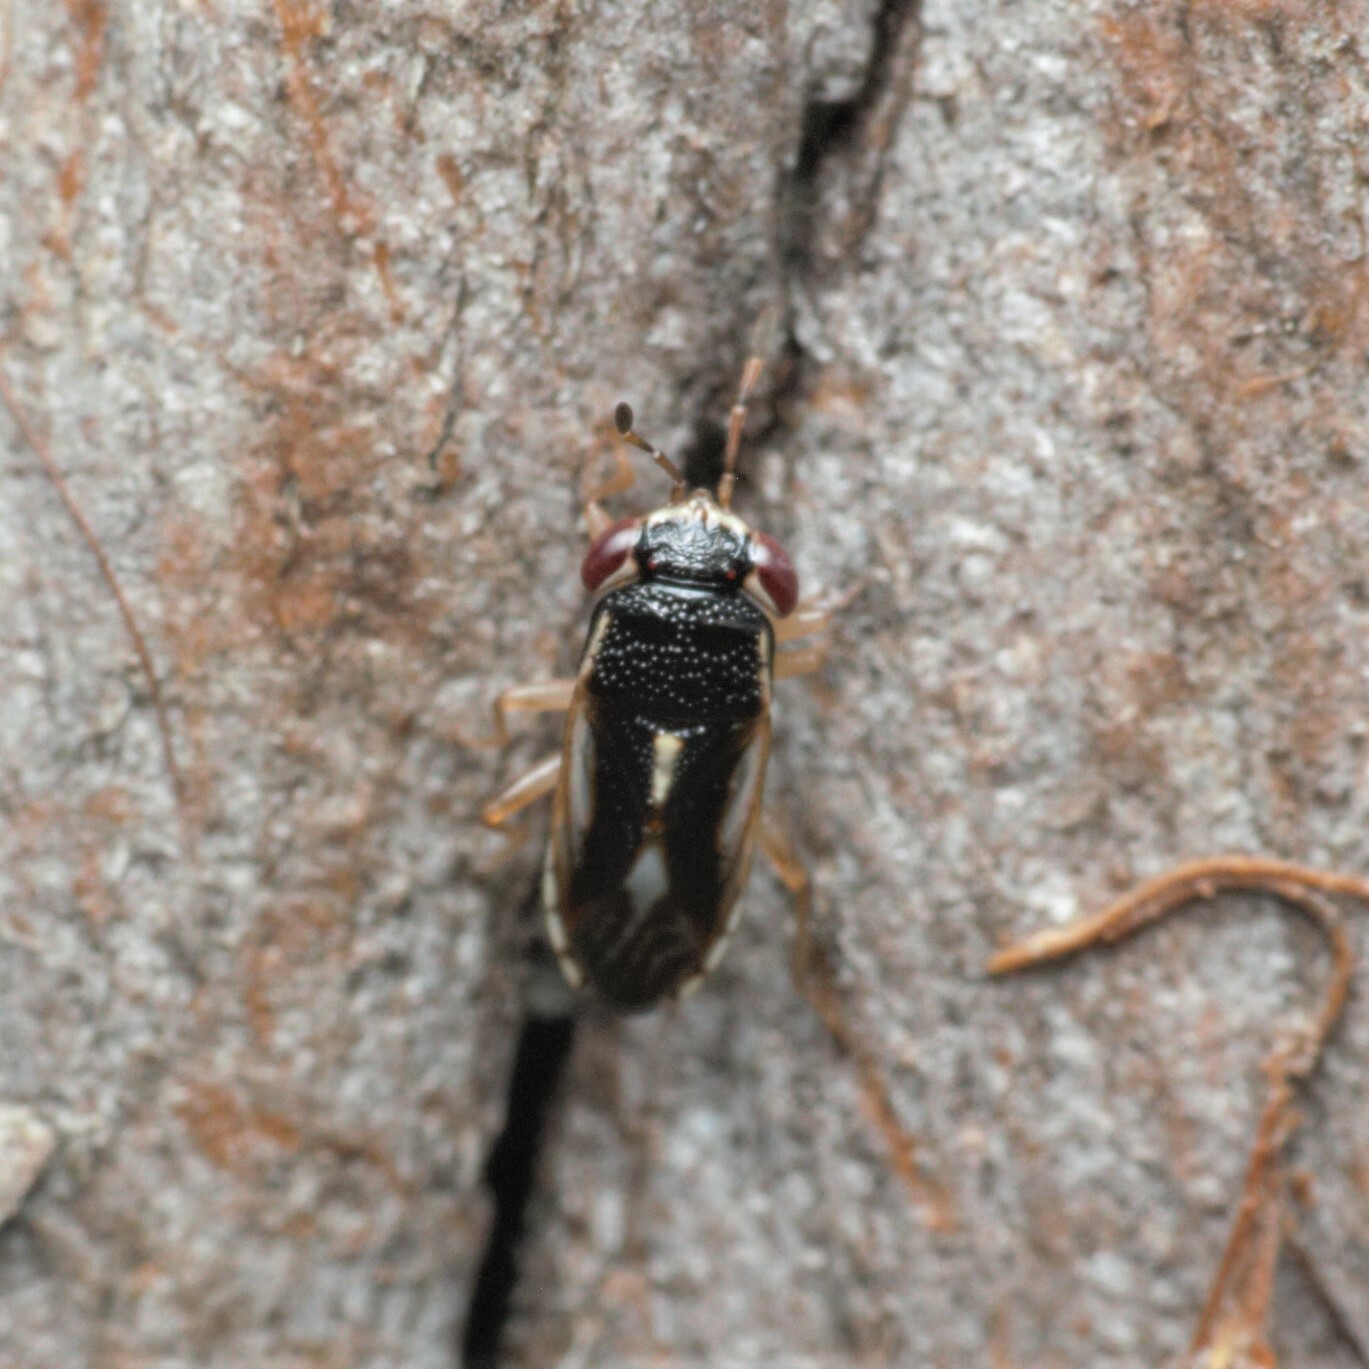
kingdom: Animalia
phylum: Arthropoda
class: Insecta
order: Hemiptera
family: Geocoridae
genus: Stylogeocoris
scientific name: Stylogeocoris elongatus
